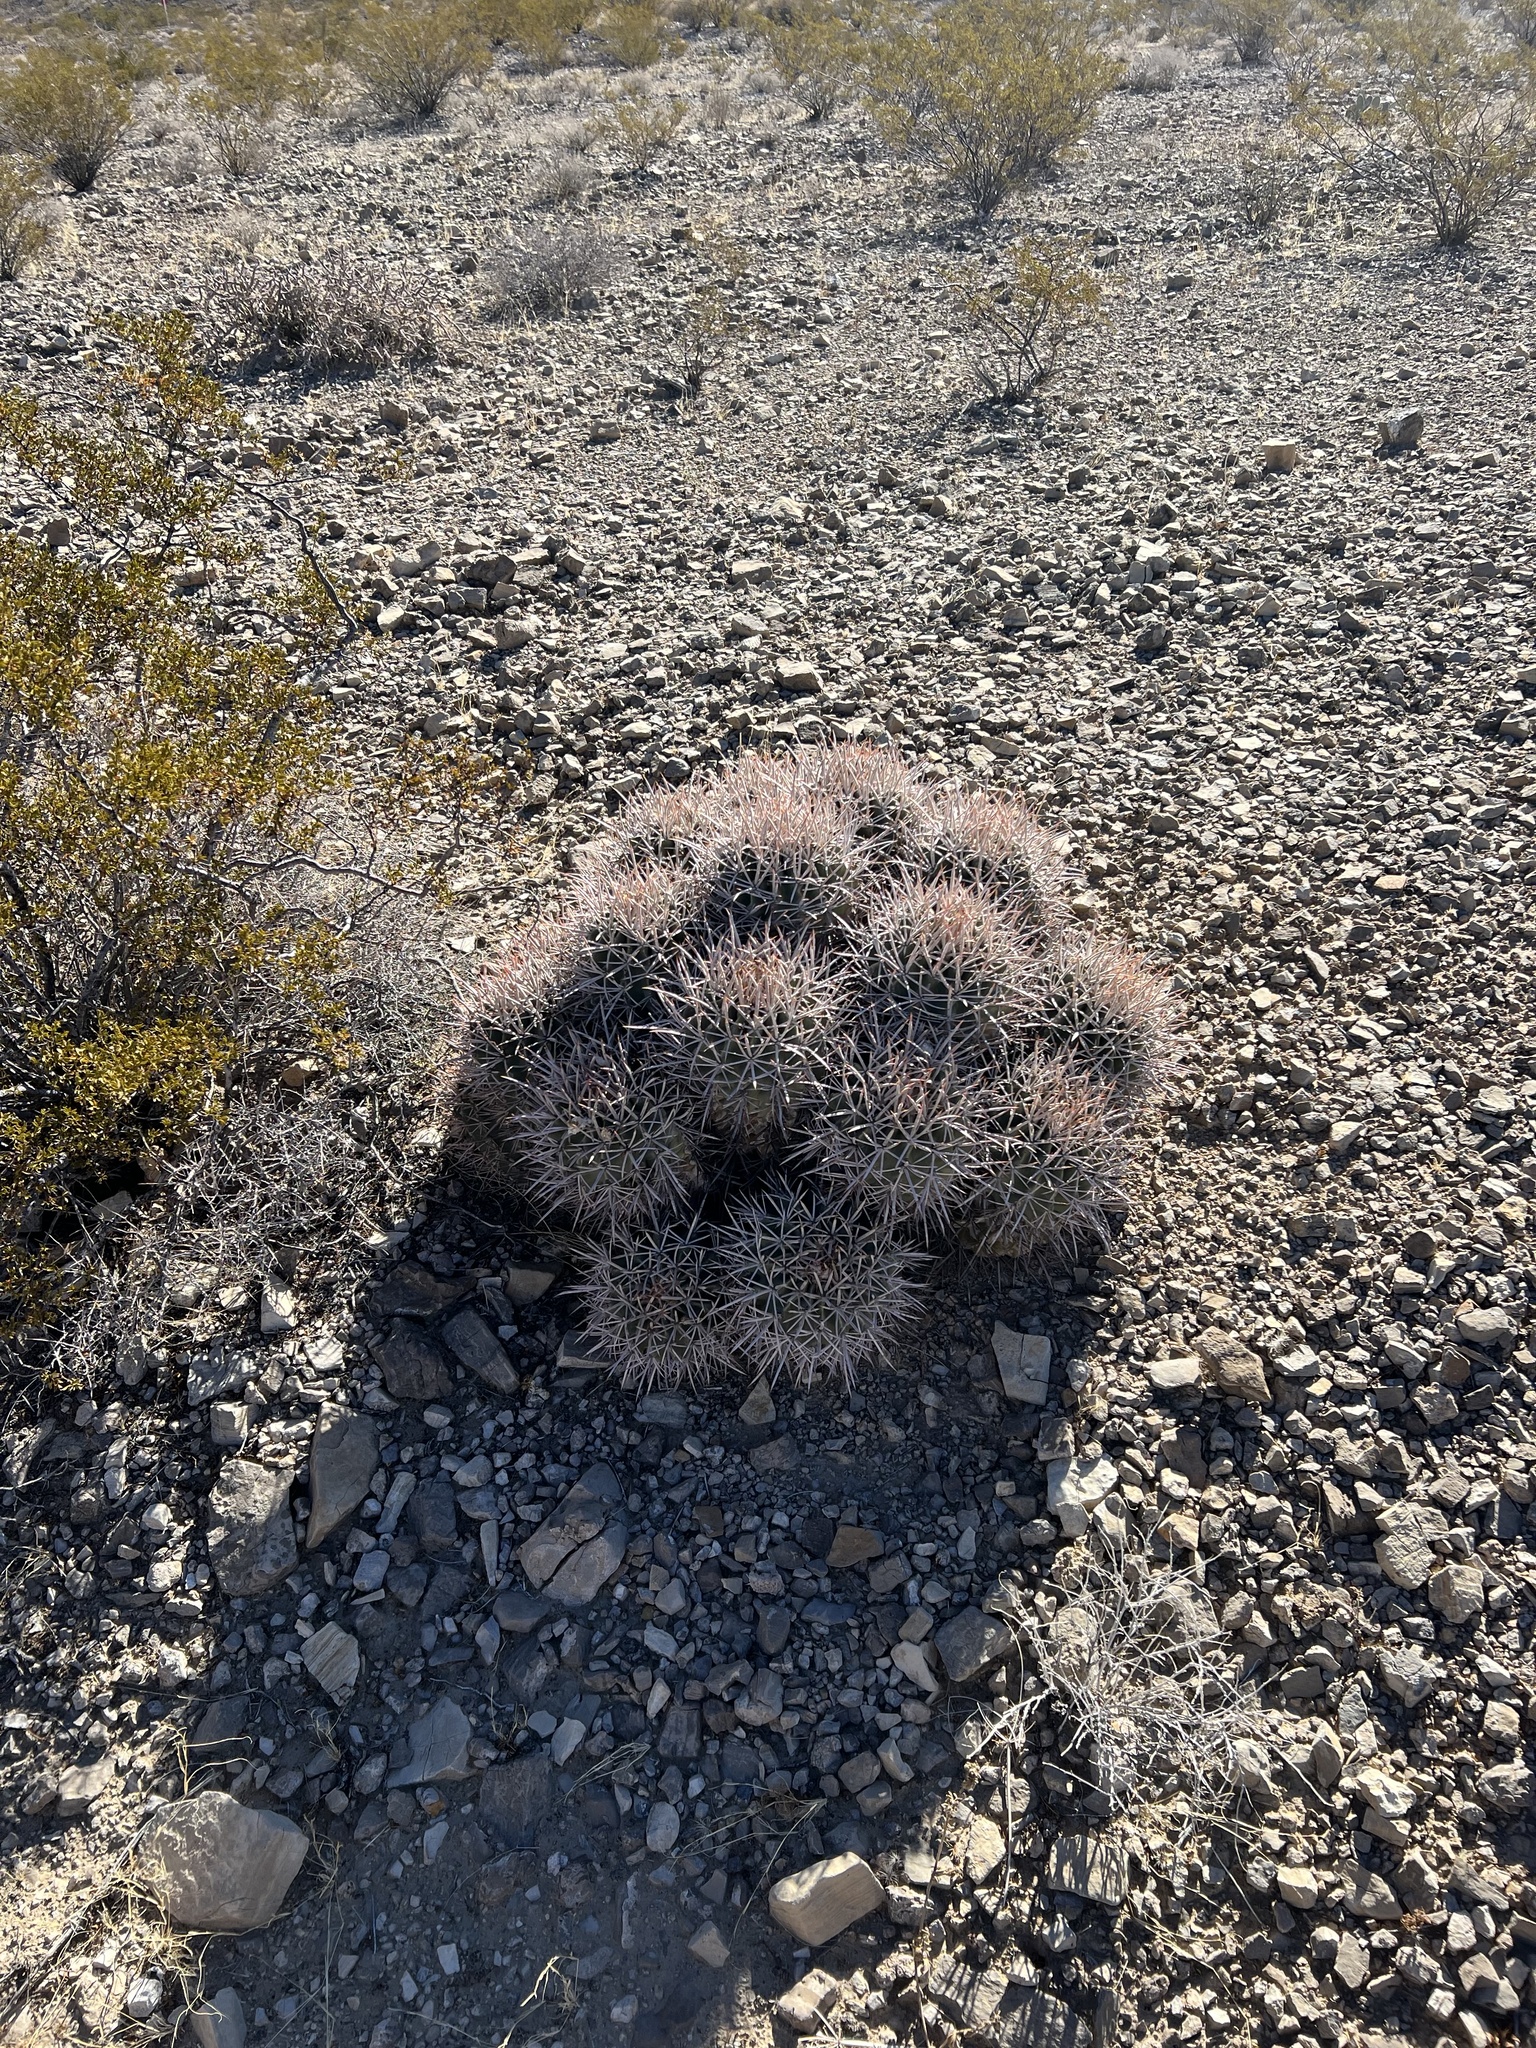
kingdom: Plantae
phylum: Tracheophyta
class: Magnoliopsida
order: Caryophyllales
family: Cactaceae
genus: Echinocactus
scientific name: Echinocactus polycephalus
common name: Cottontop cactus
